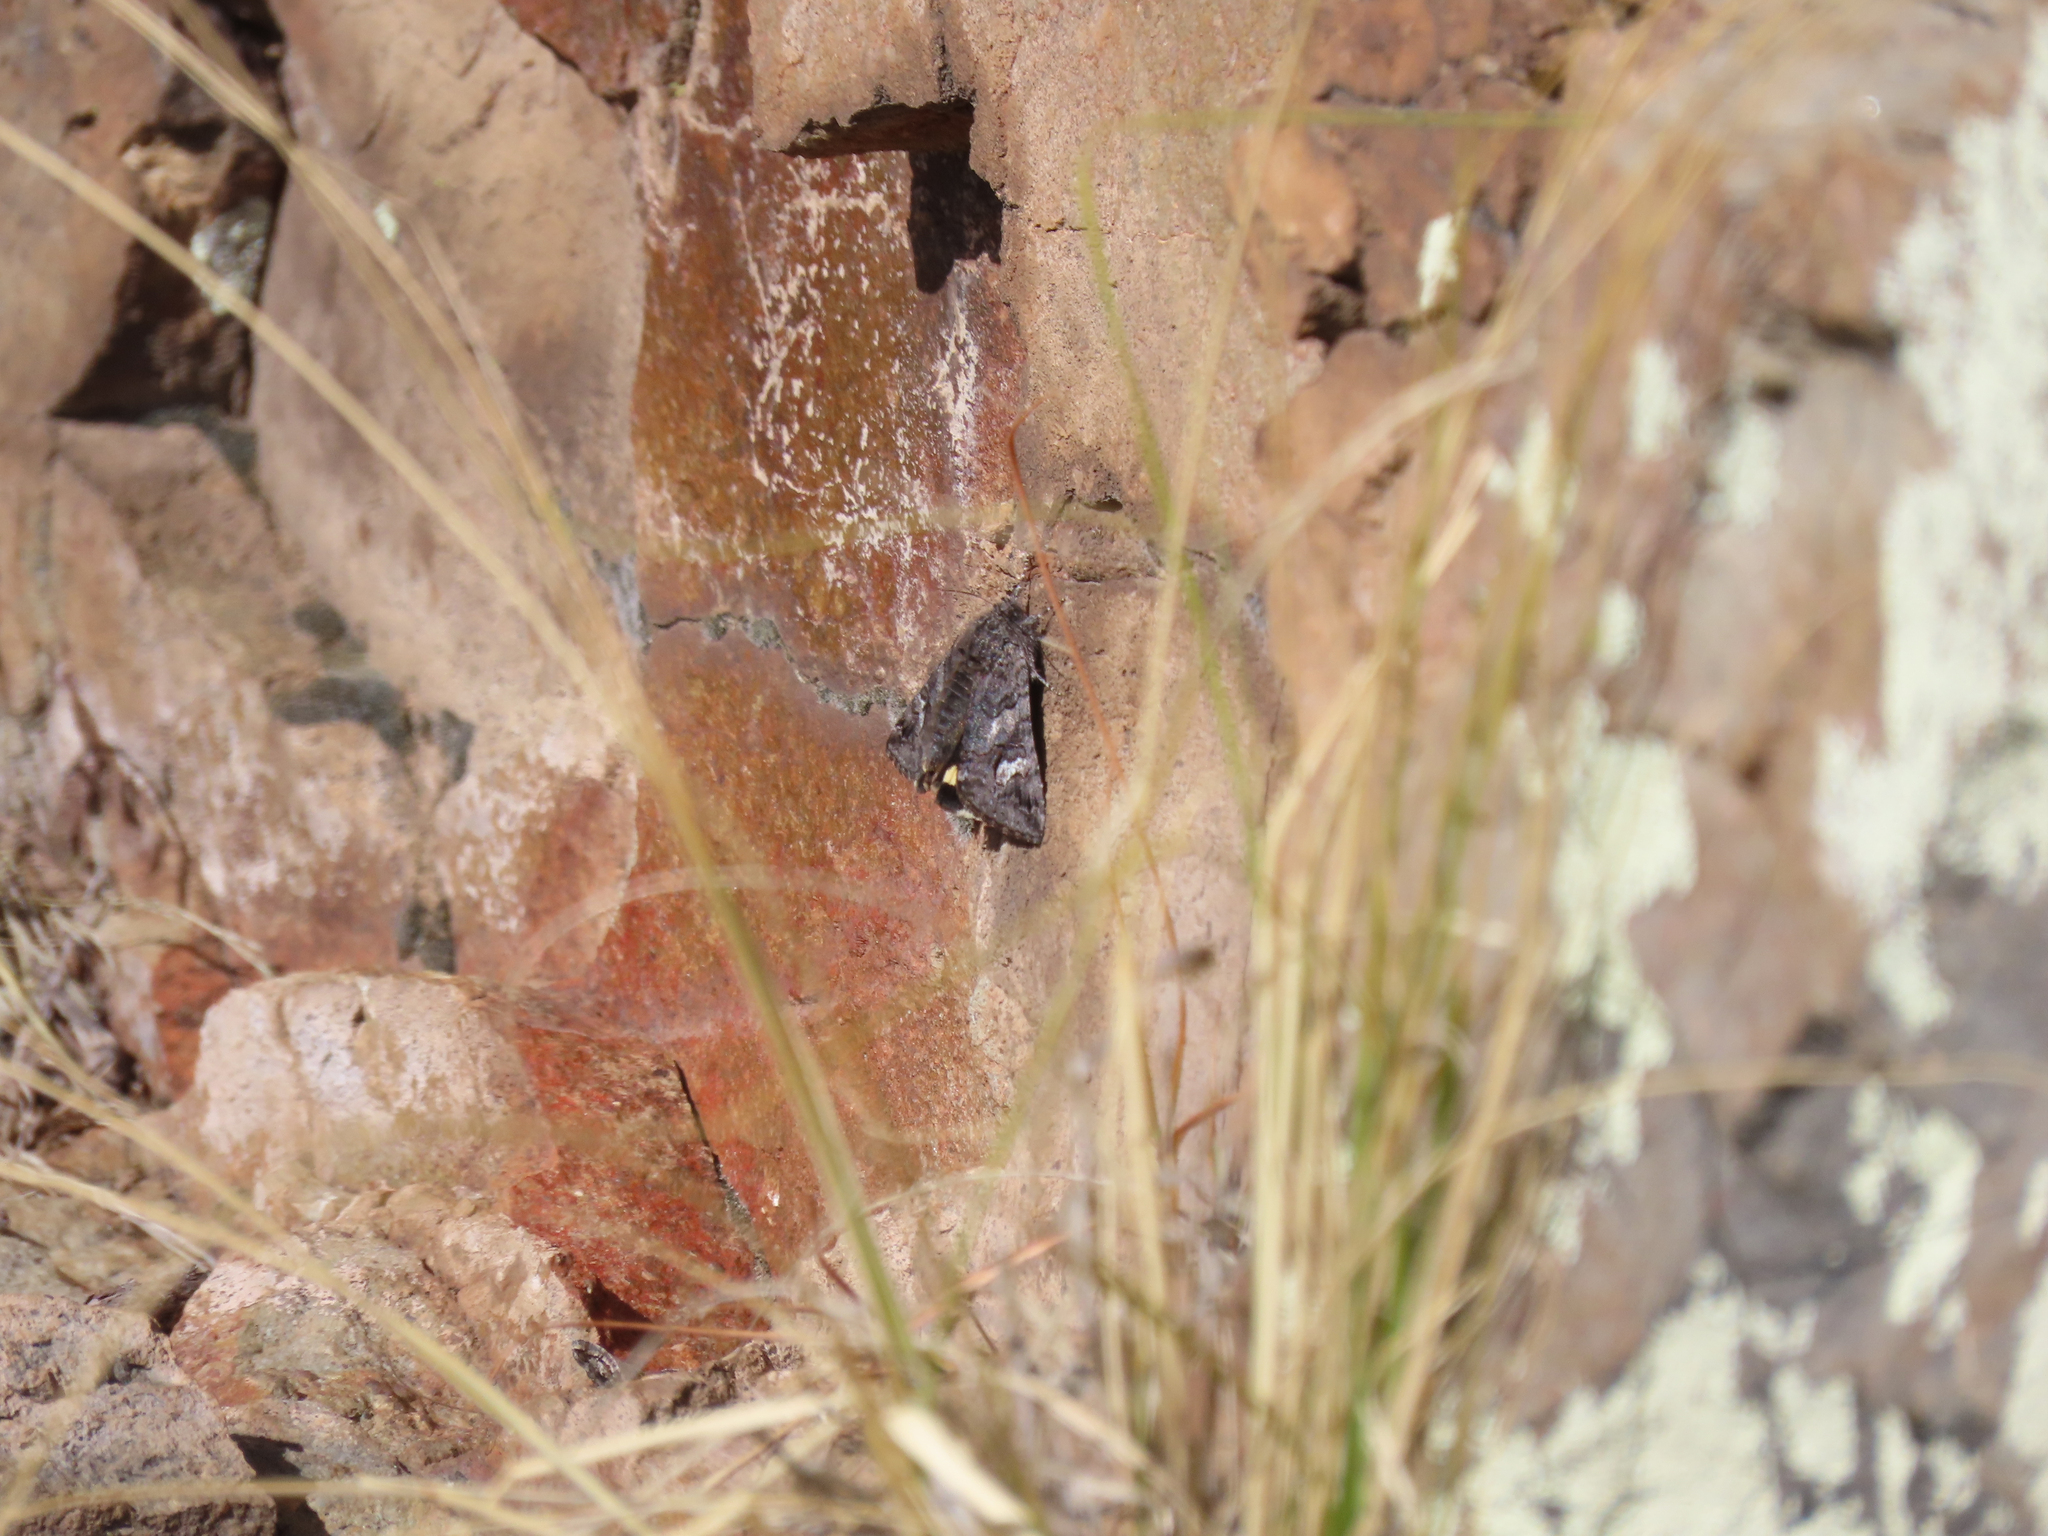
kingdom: Animalia
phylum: Arthropoda
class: Insecta
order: Lepidoptera
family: Erebidae
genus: Litocala
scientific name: Litocala sexsignata
